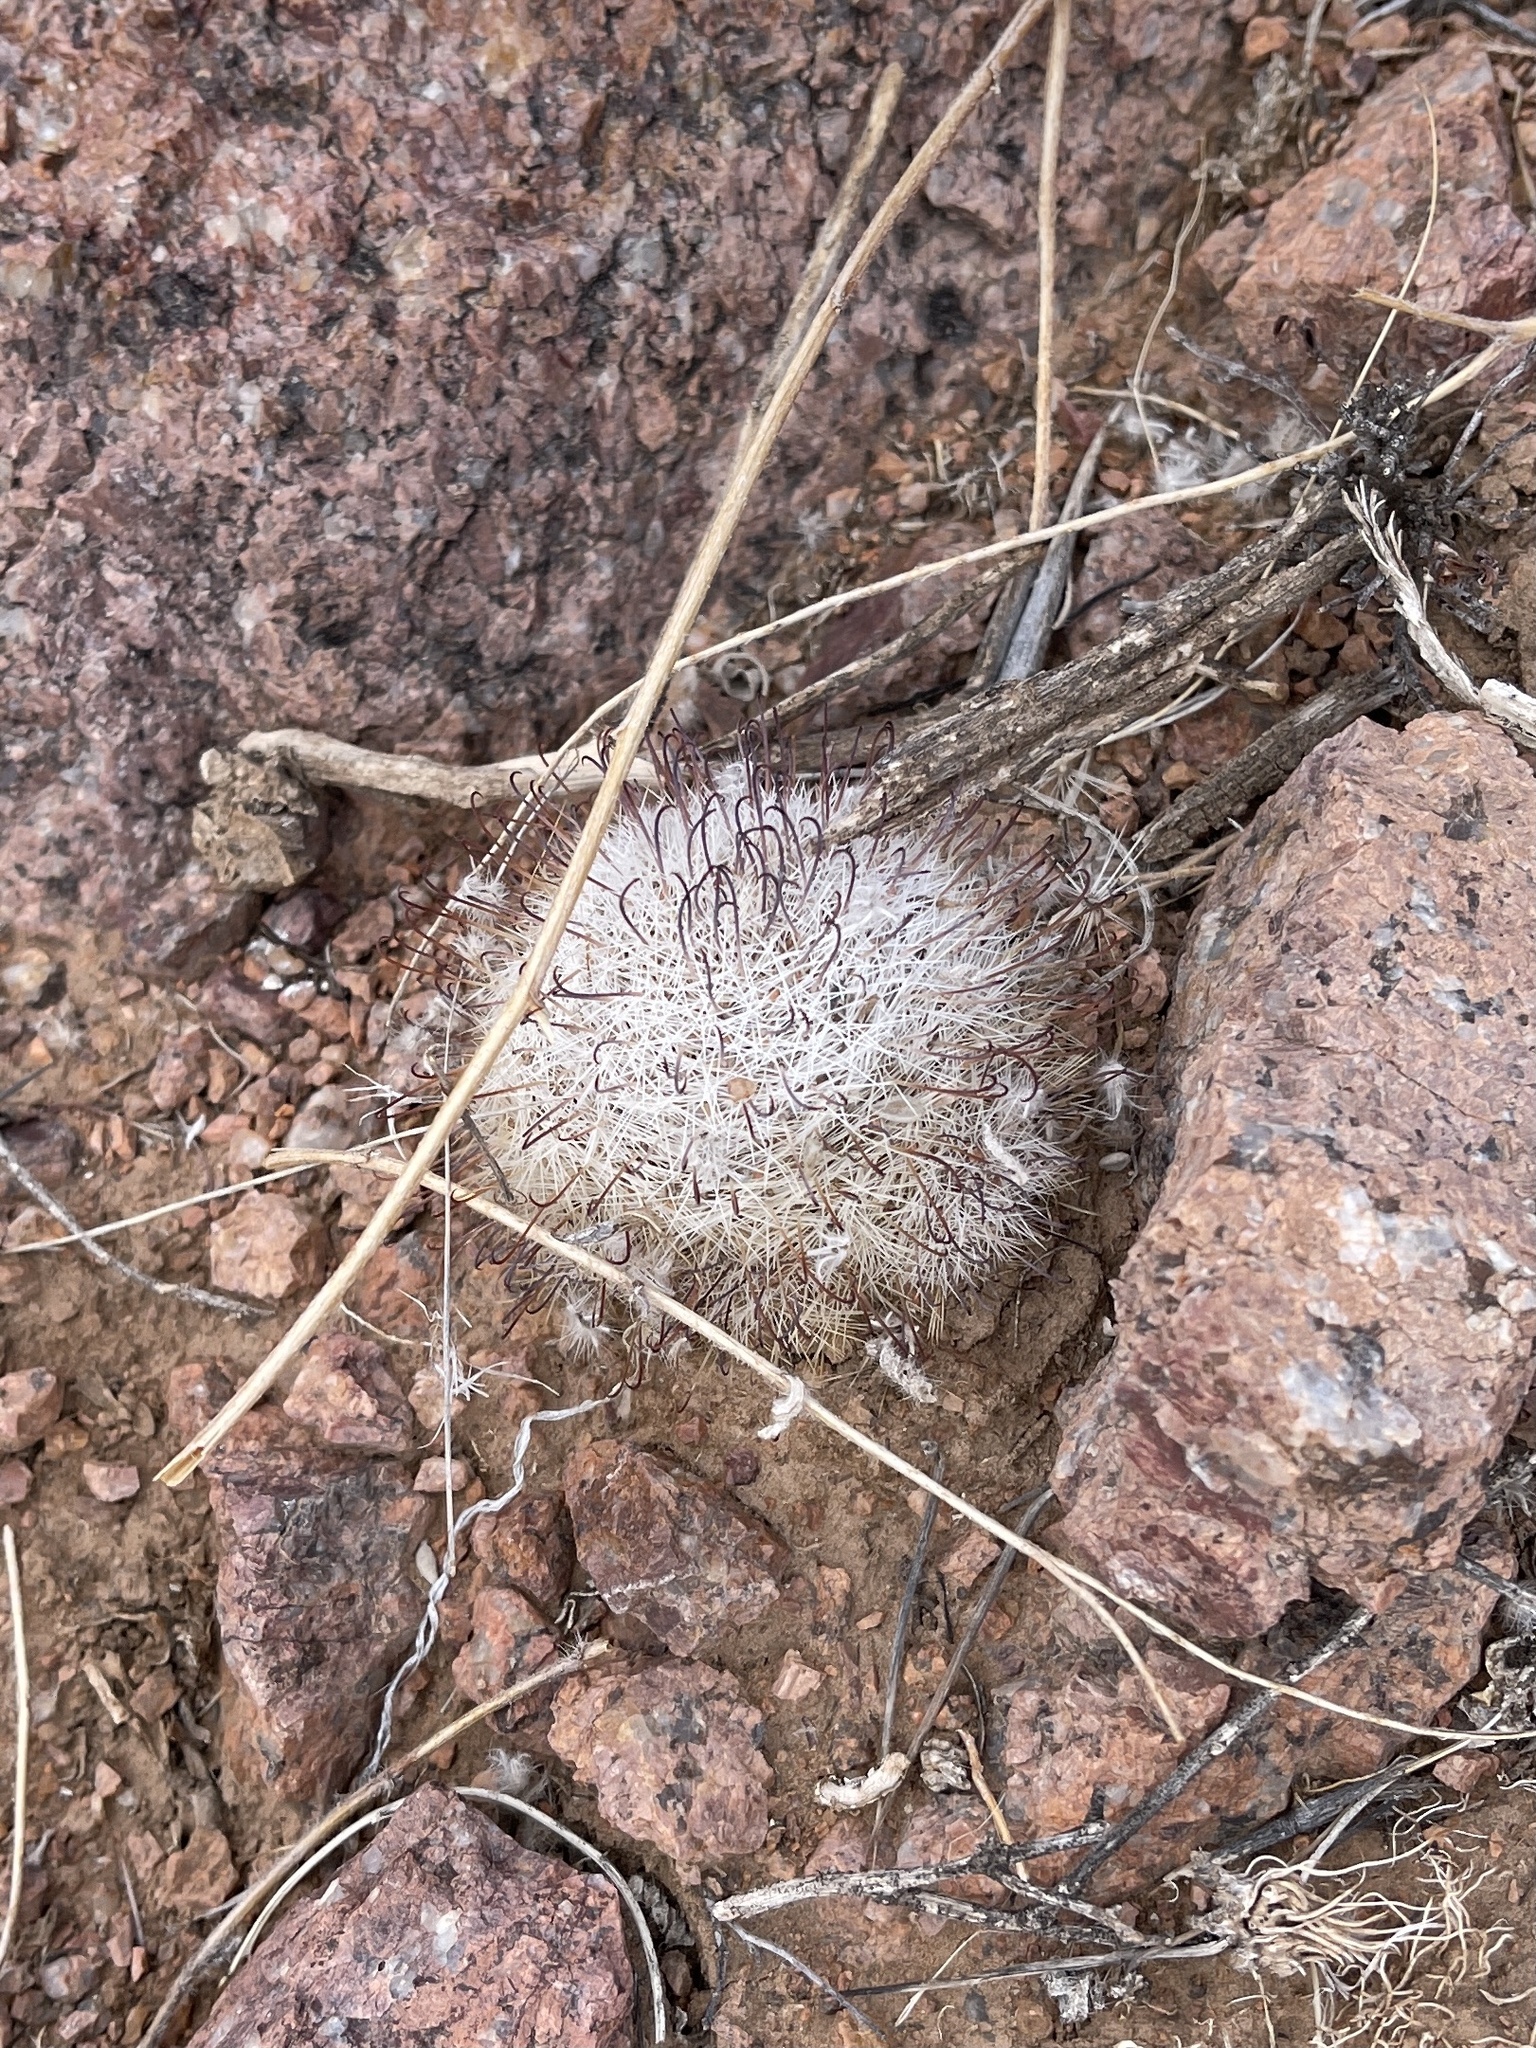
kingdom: Plantae
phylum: Tracheophyta
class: Magnoliopsida
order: Caryophyllales
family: Cactaceae
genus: Cochemiea
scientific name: Cochemiea grahamii
